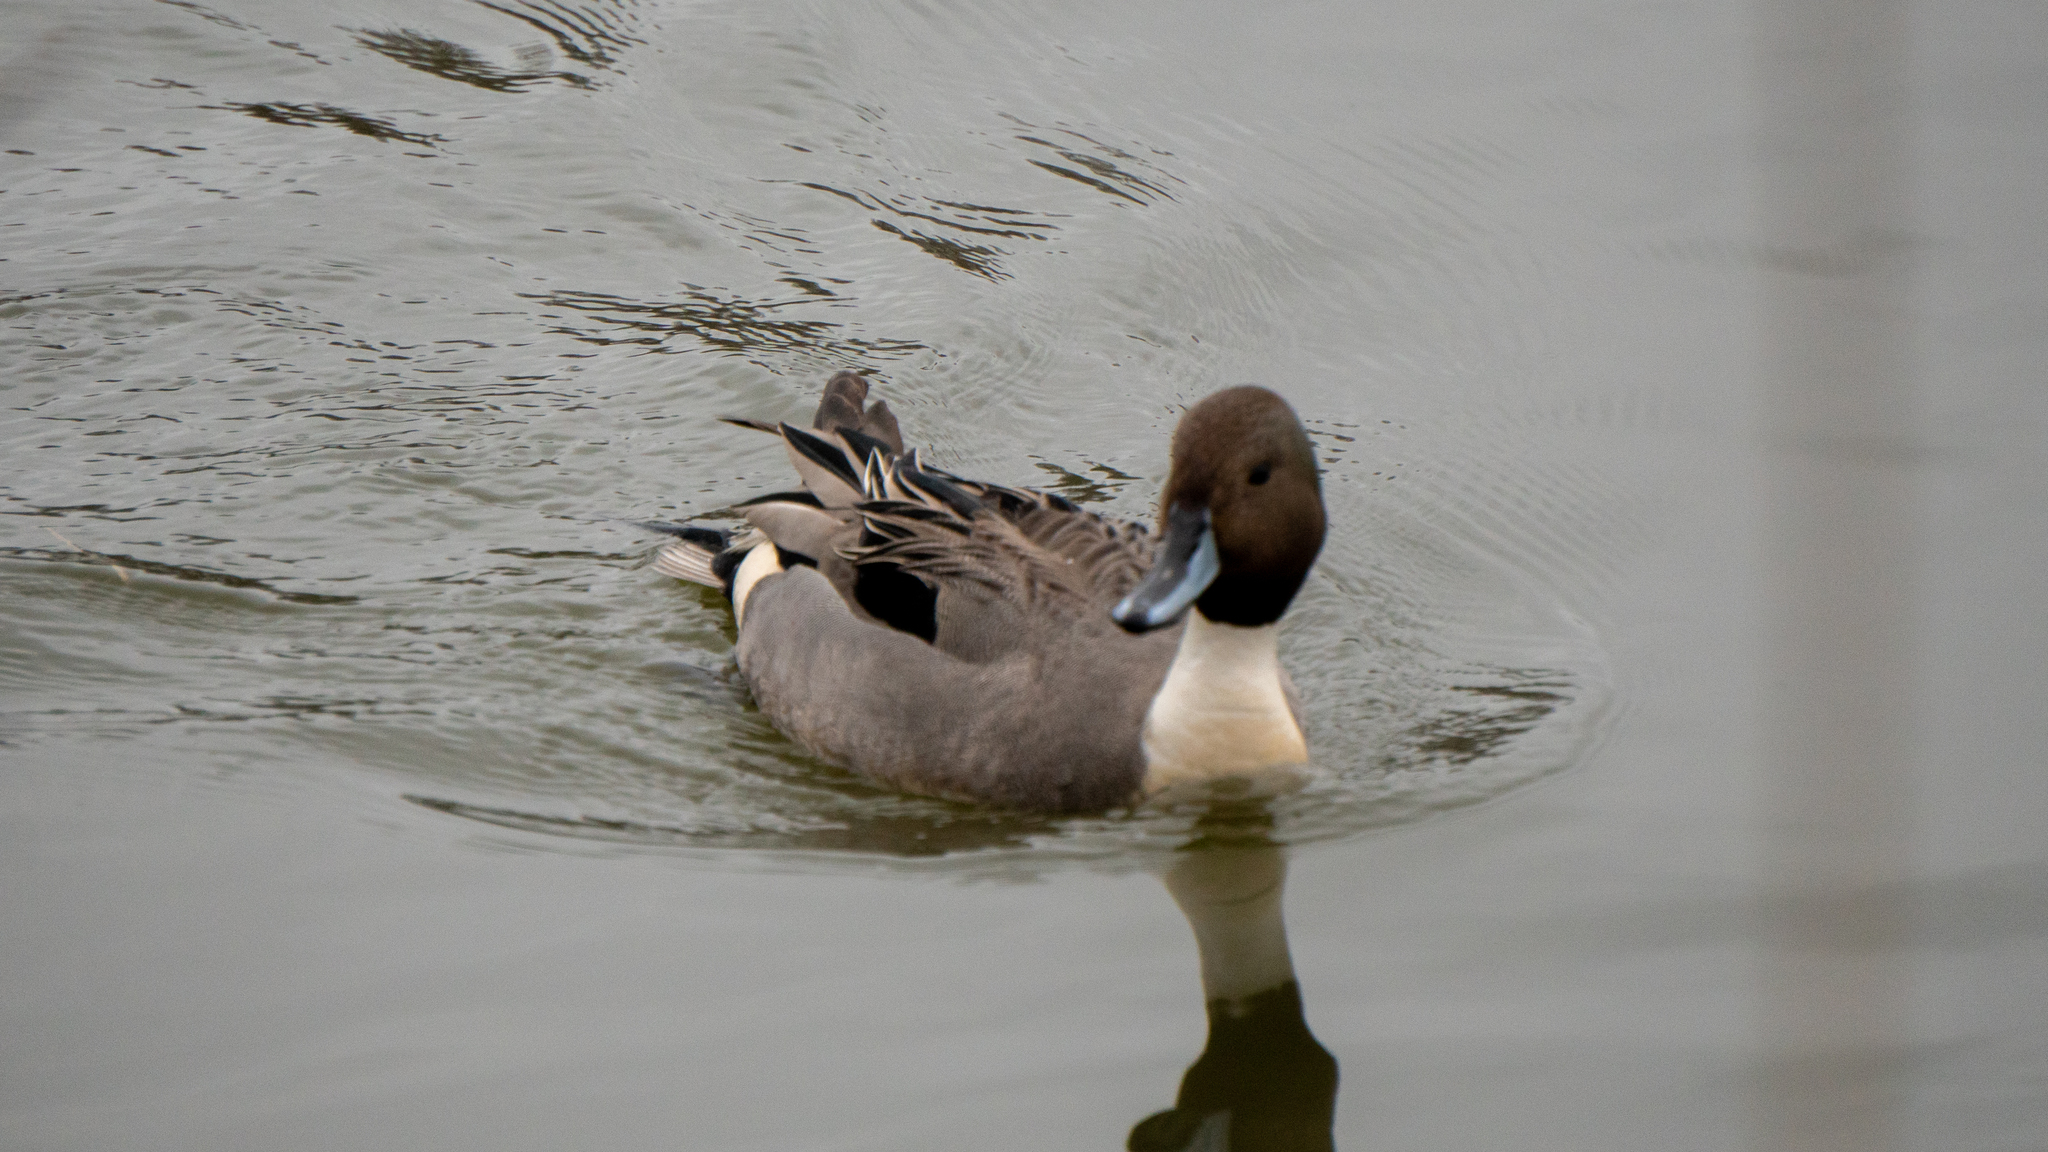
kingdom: Animalia
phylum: Chordata
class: Aves
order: Anseriformes
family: Anatidae
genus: Anas
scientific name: Anas acuta
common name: Northern pintail
